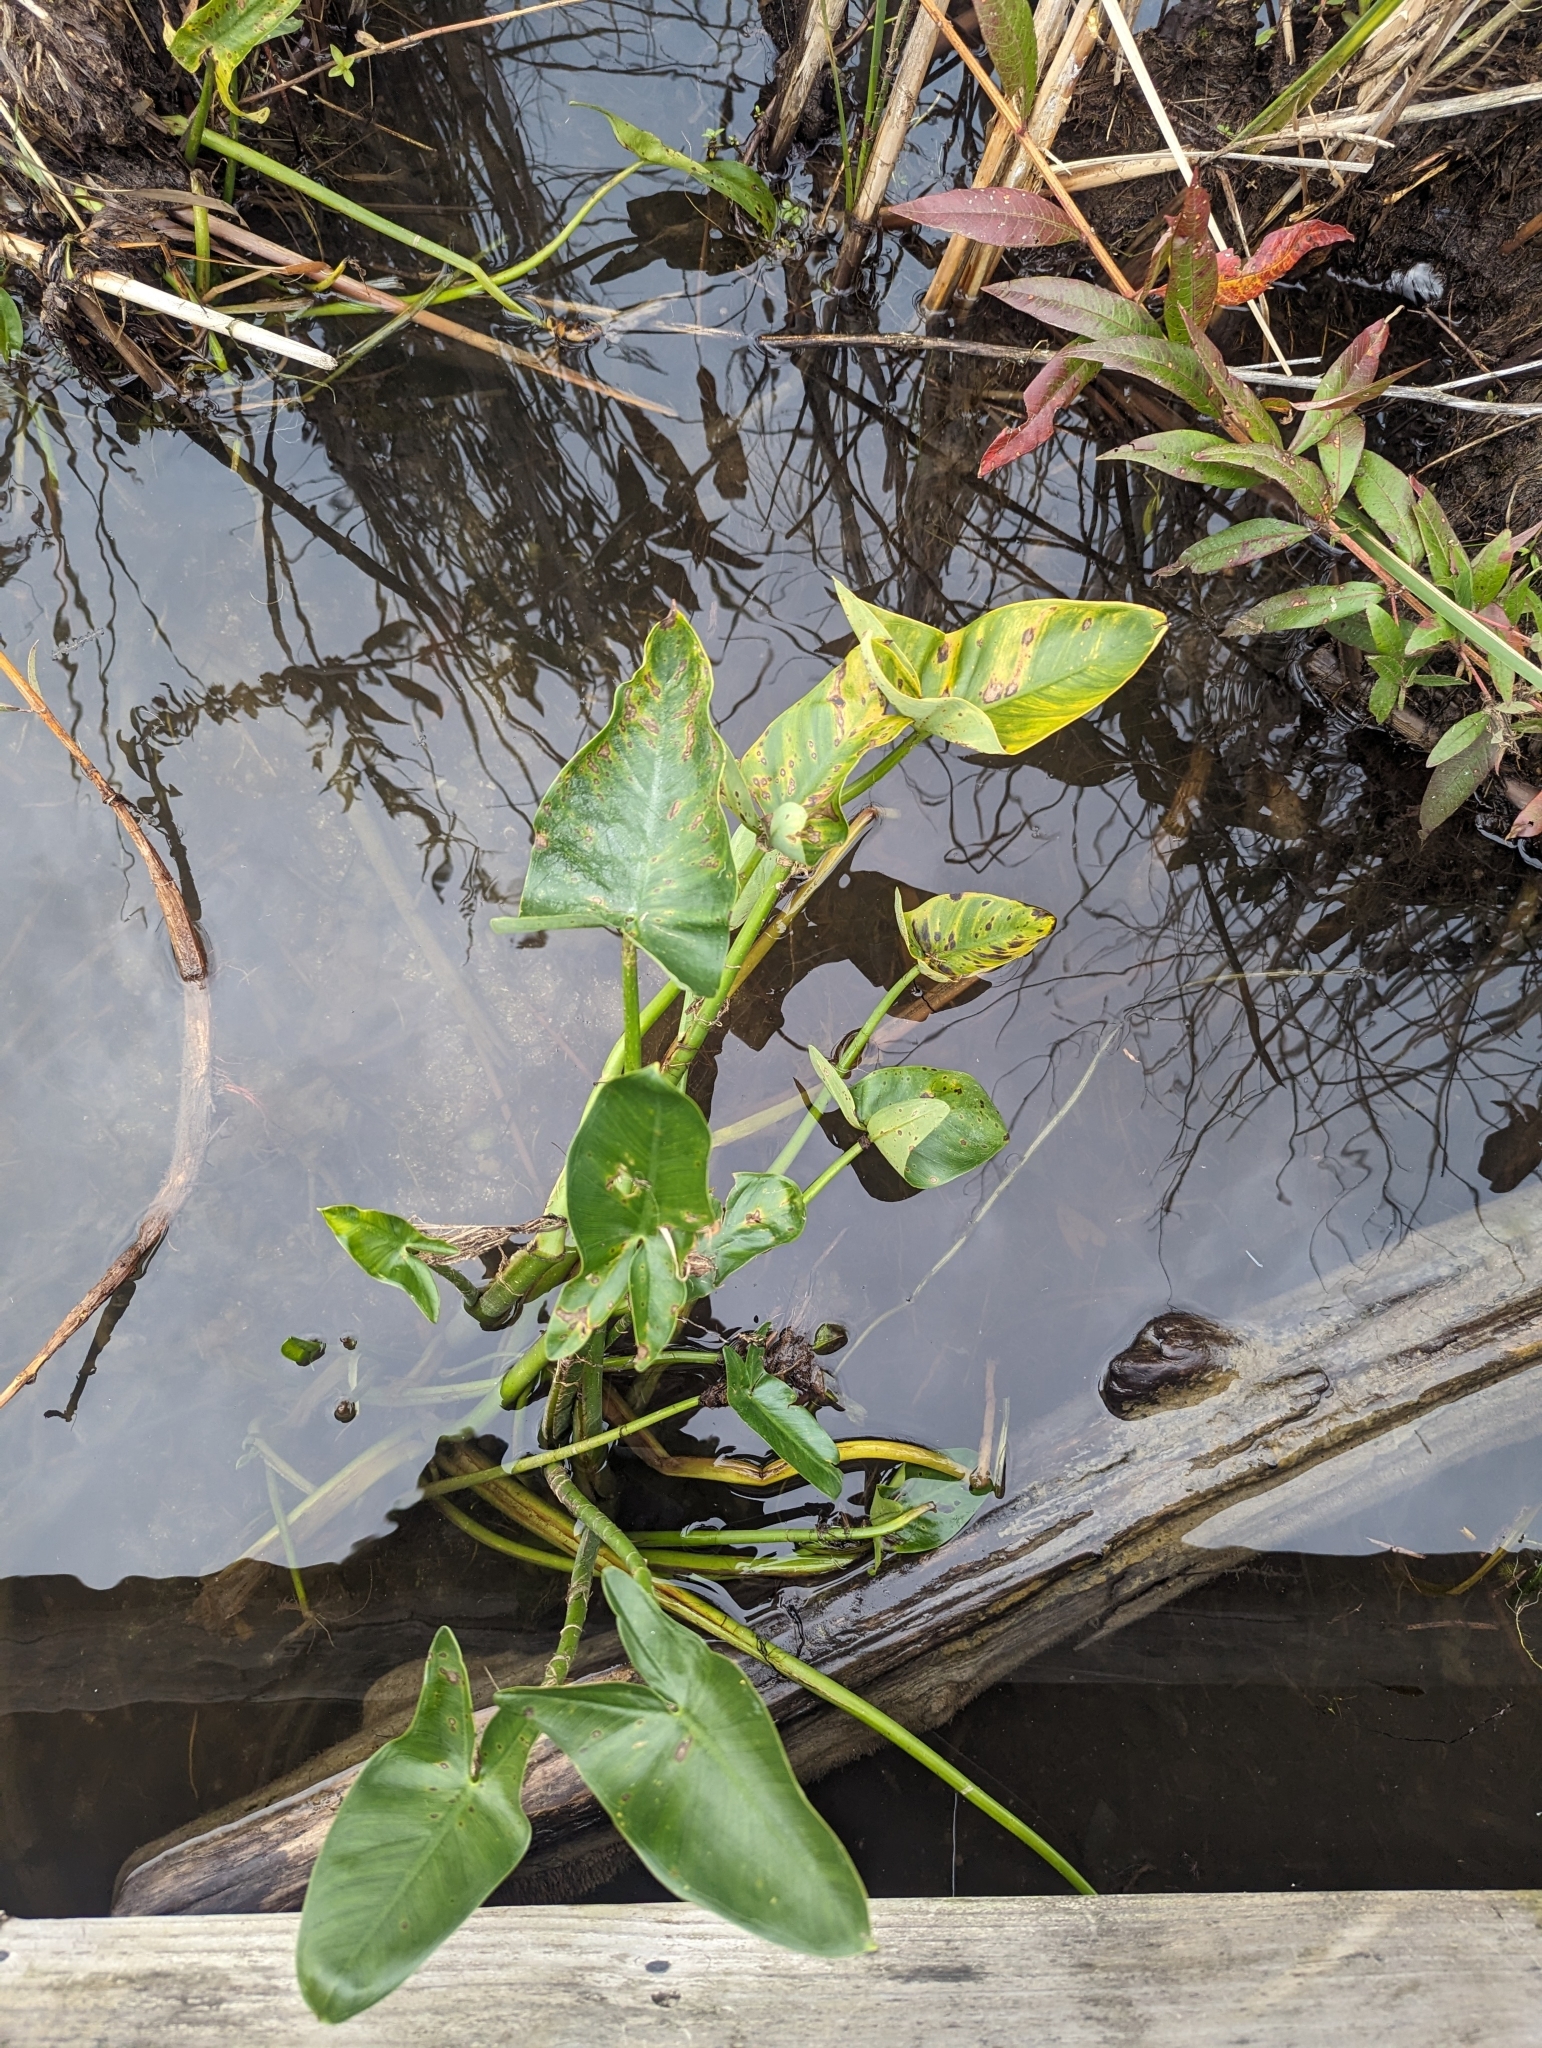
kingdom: Plantae
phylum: Tracheophyta
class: Liliopsida
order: Alismatales
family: Araceae
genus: Peltandra
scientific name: Peltandra virginica
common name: Arrow arum
